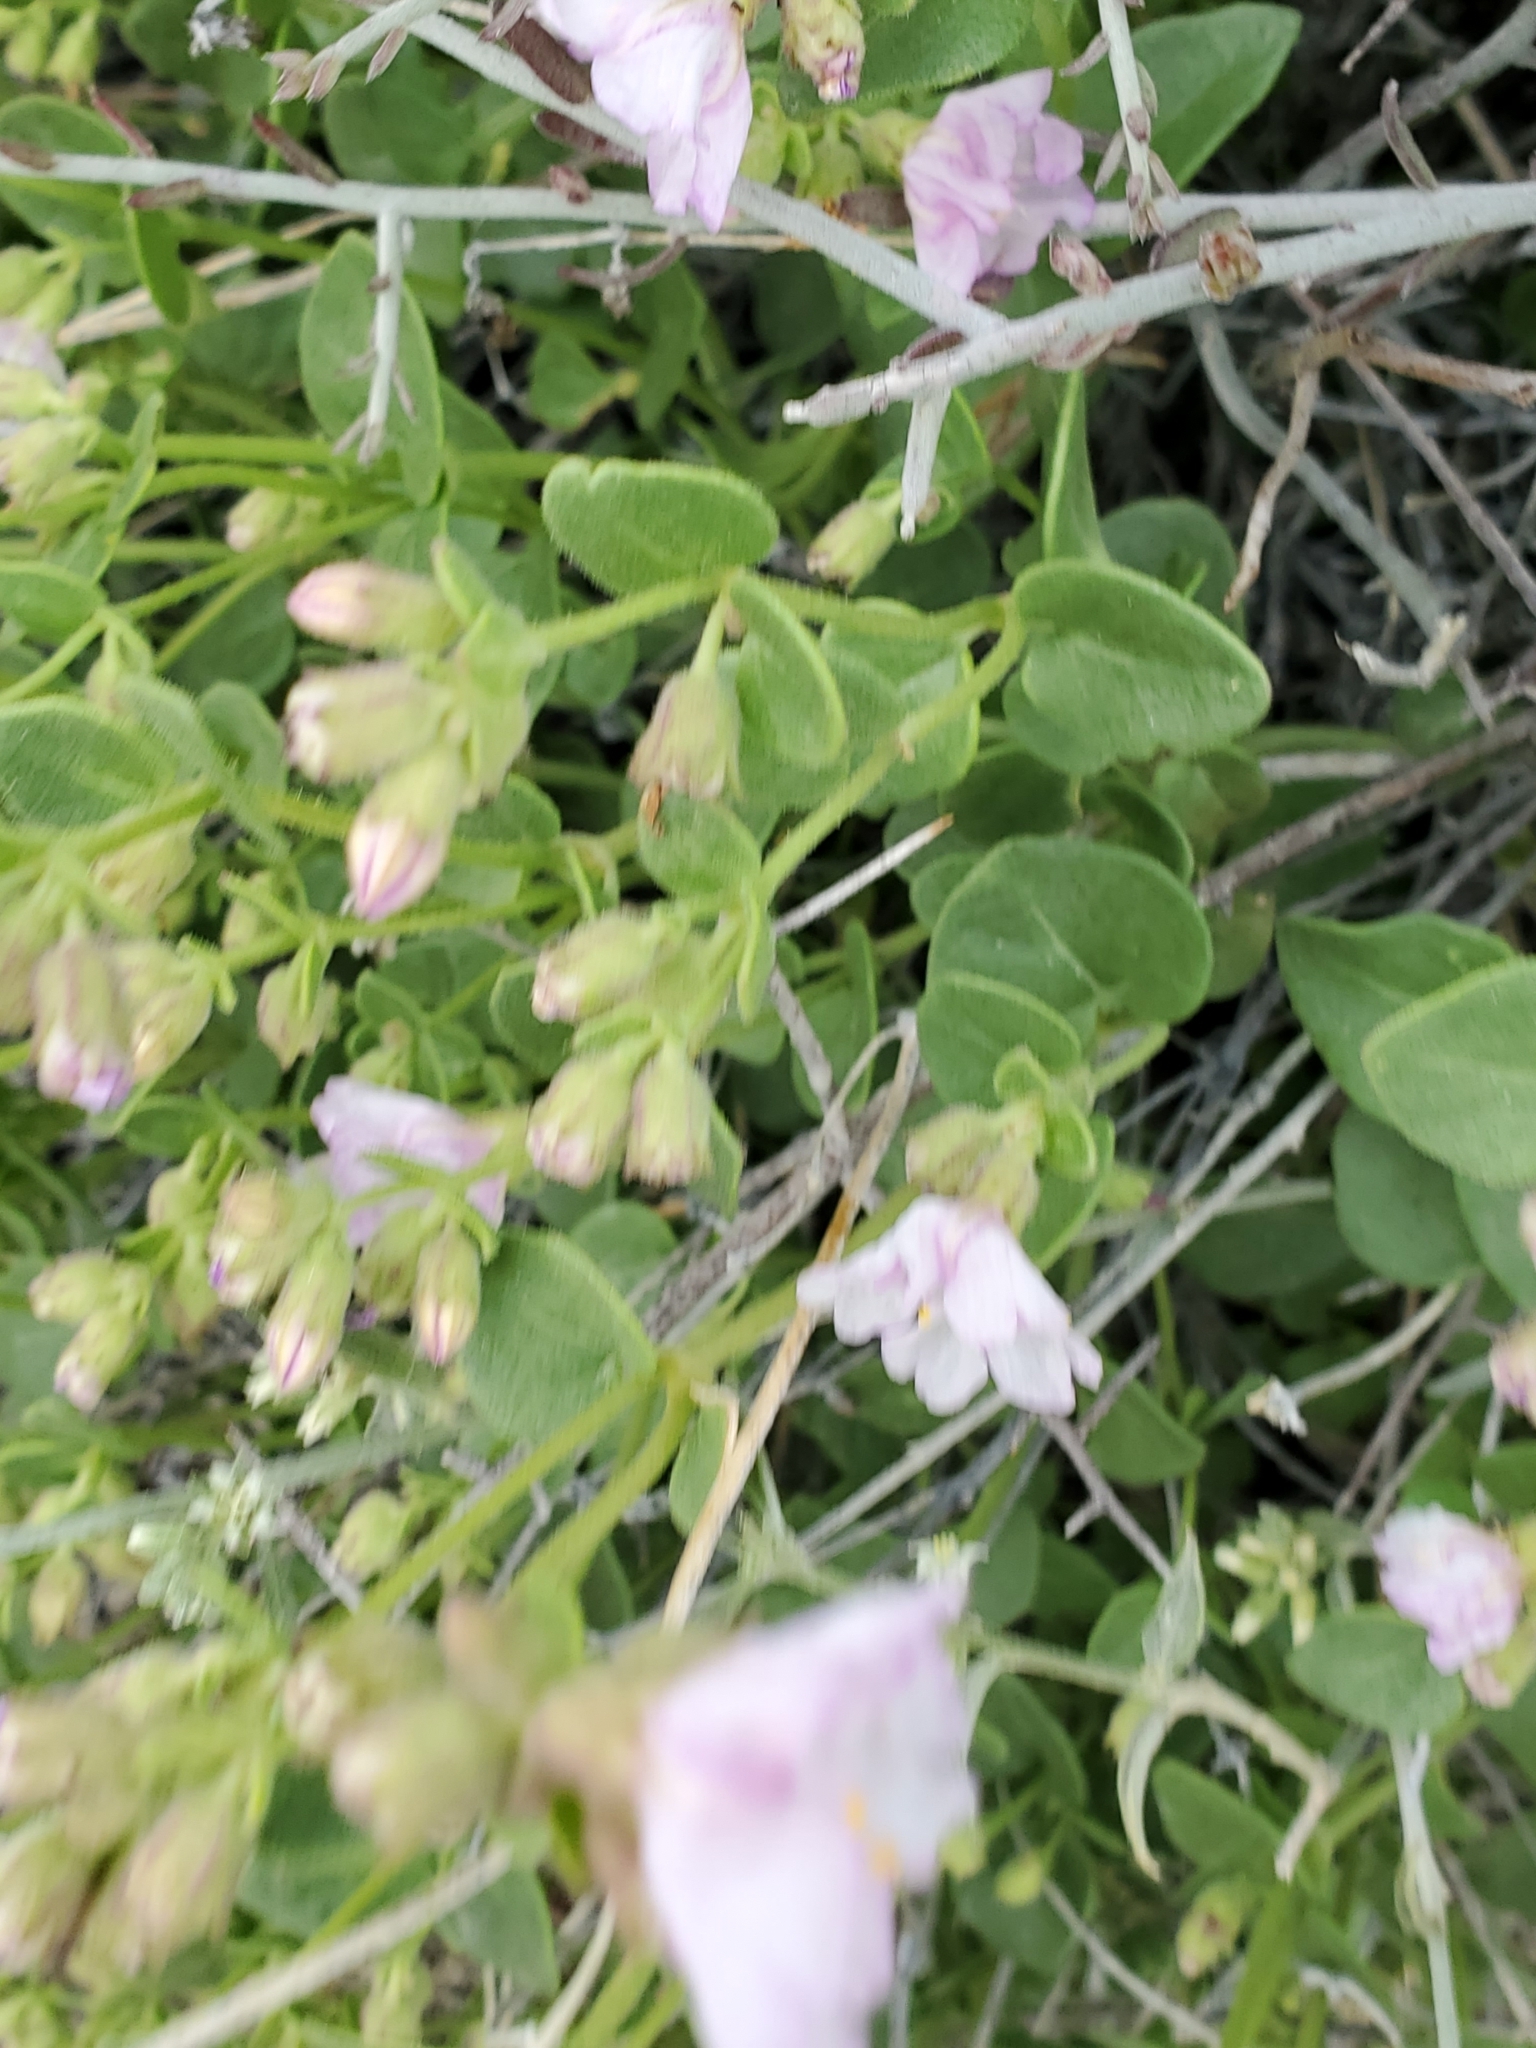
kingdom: Plantae
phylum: Tracheophyta
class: Magnoliopsida
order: Caryophyllales
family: Nyctaginaceae
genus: Mirabilis
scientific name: Mirabilis laevis
